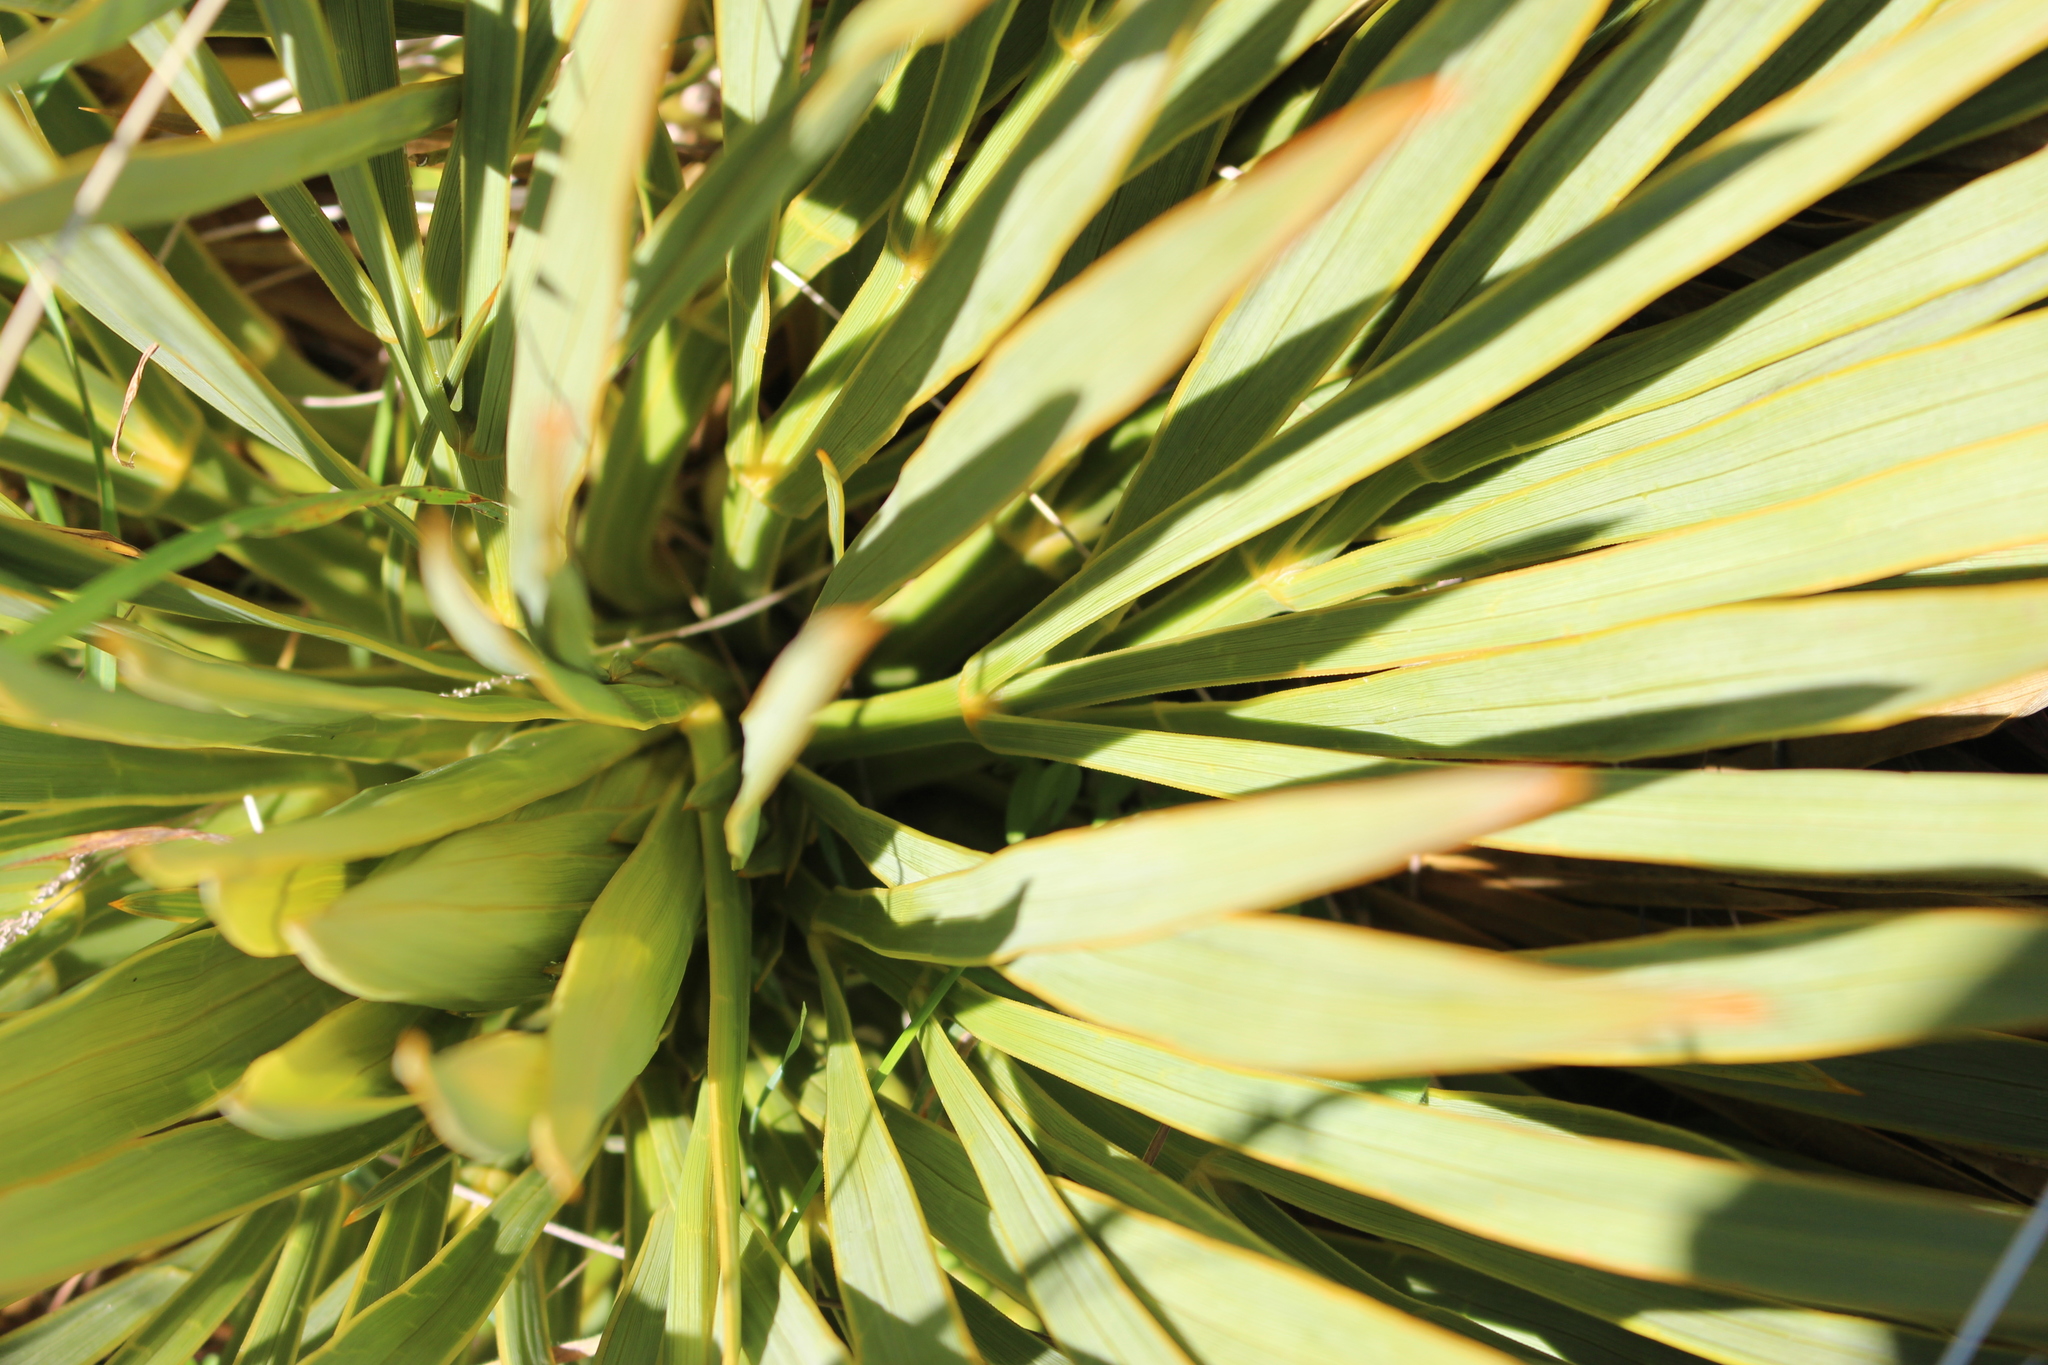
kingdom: Plantae
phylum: Tracheophyta
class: Magnoliopsida
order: Apiales
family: Apiaceae
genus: Aciphylla
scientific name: Aciphylla aurea
